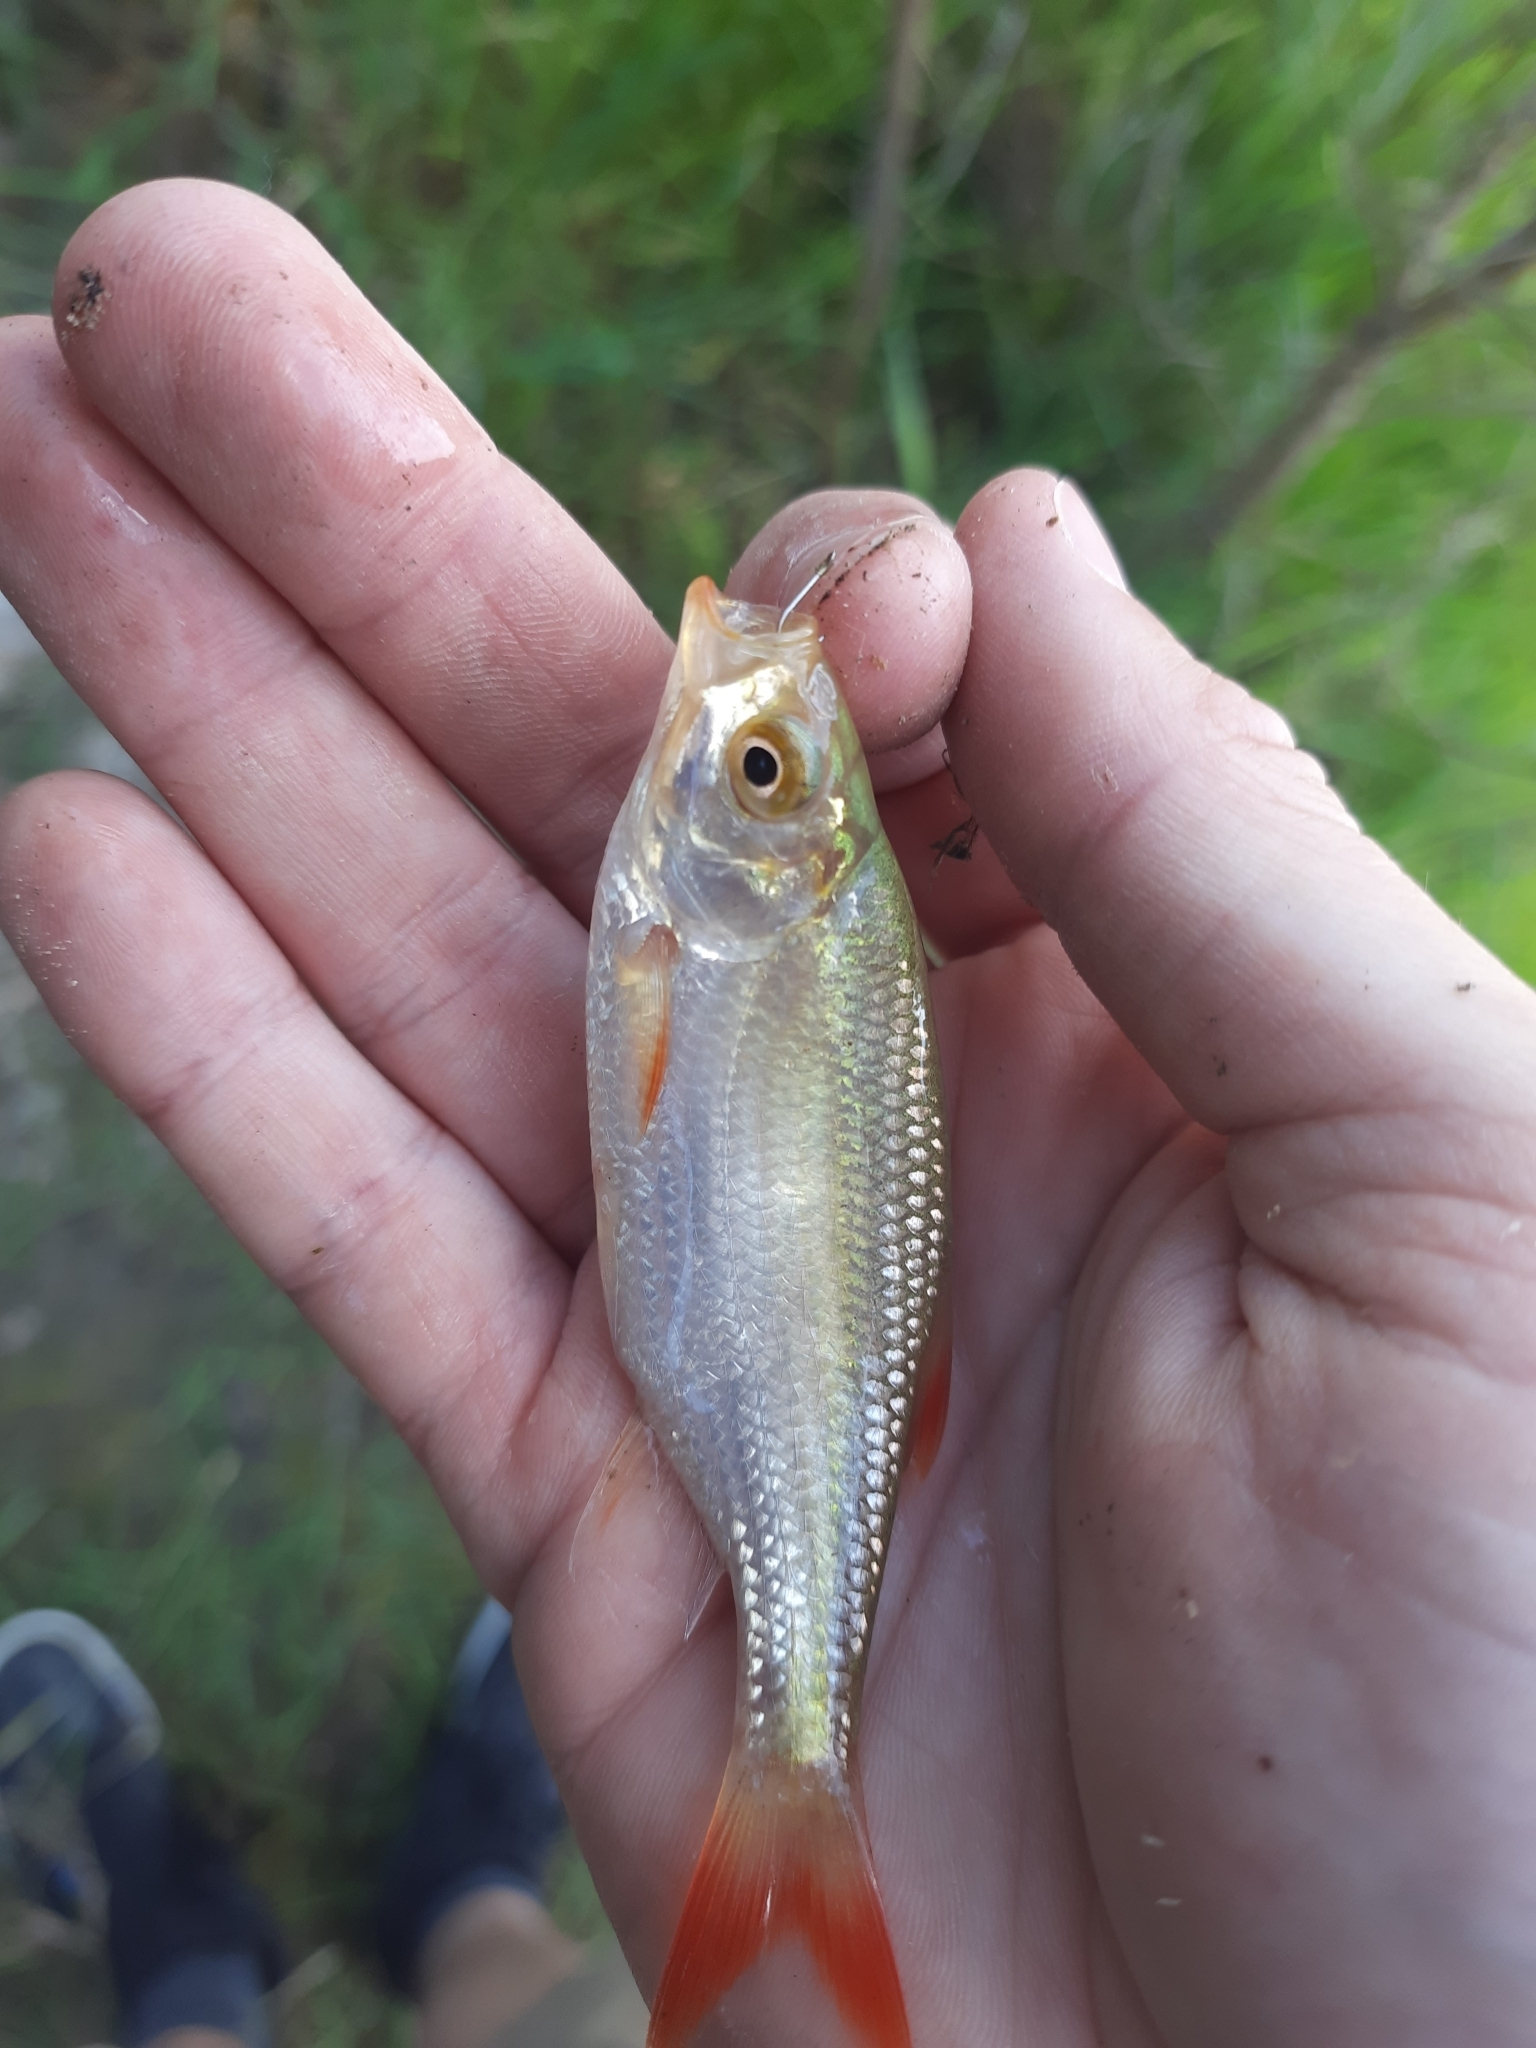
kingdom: Animalia
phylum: Chordata
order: Cypriniformes
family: Cyprinidae
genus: Scardinius
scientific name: Scardinius erythrophthalmus
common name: Rudd
